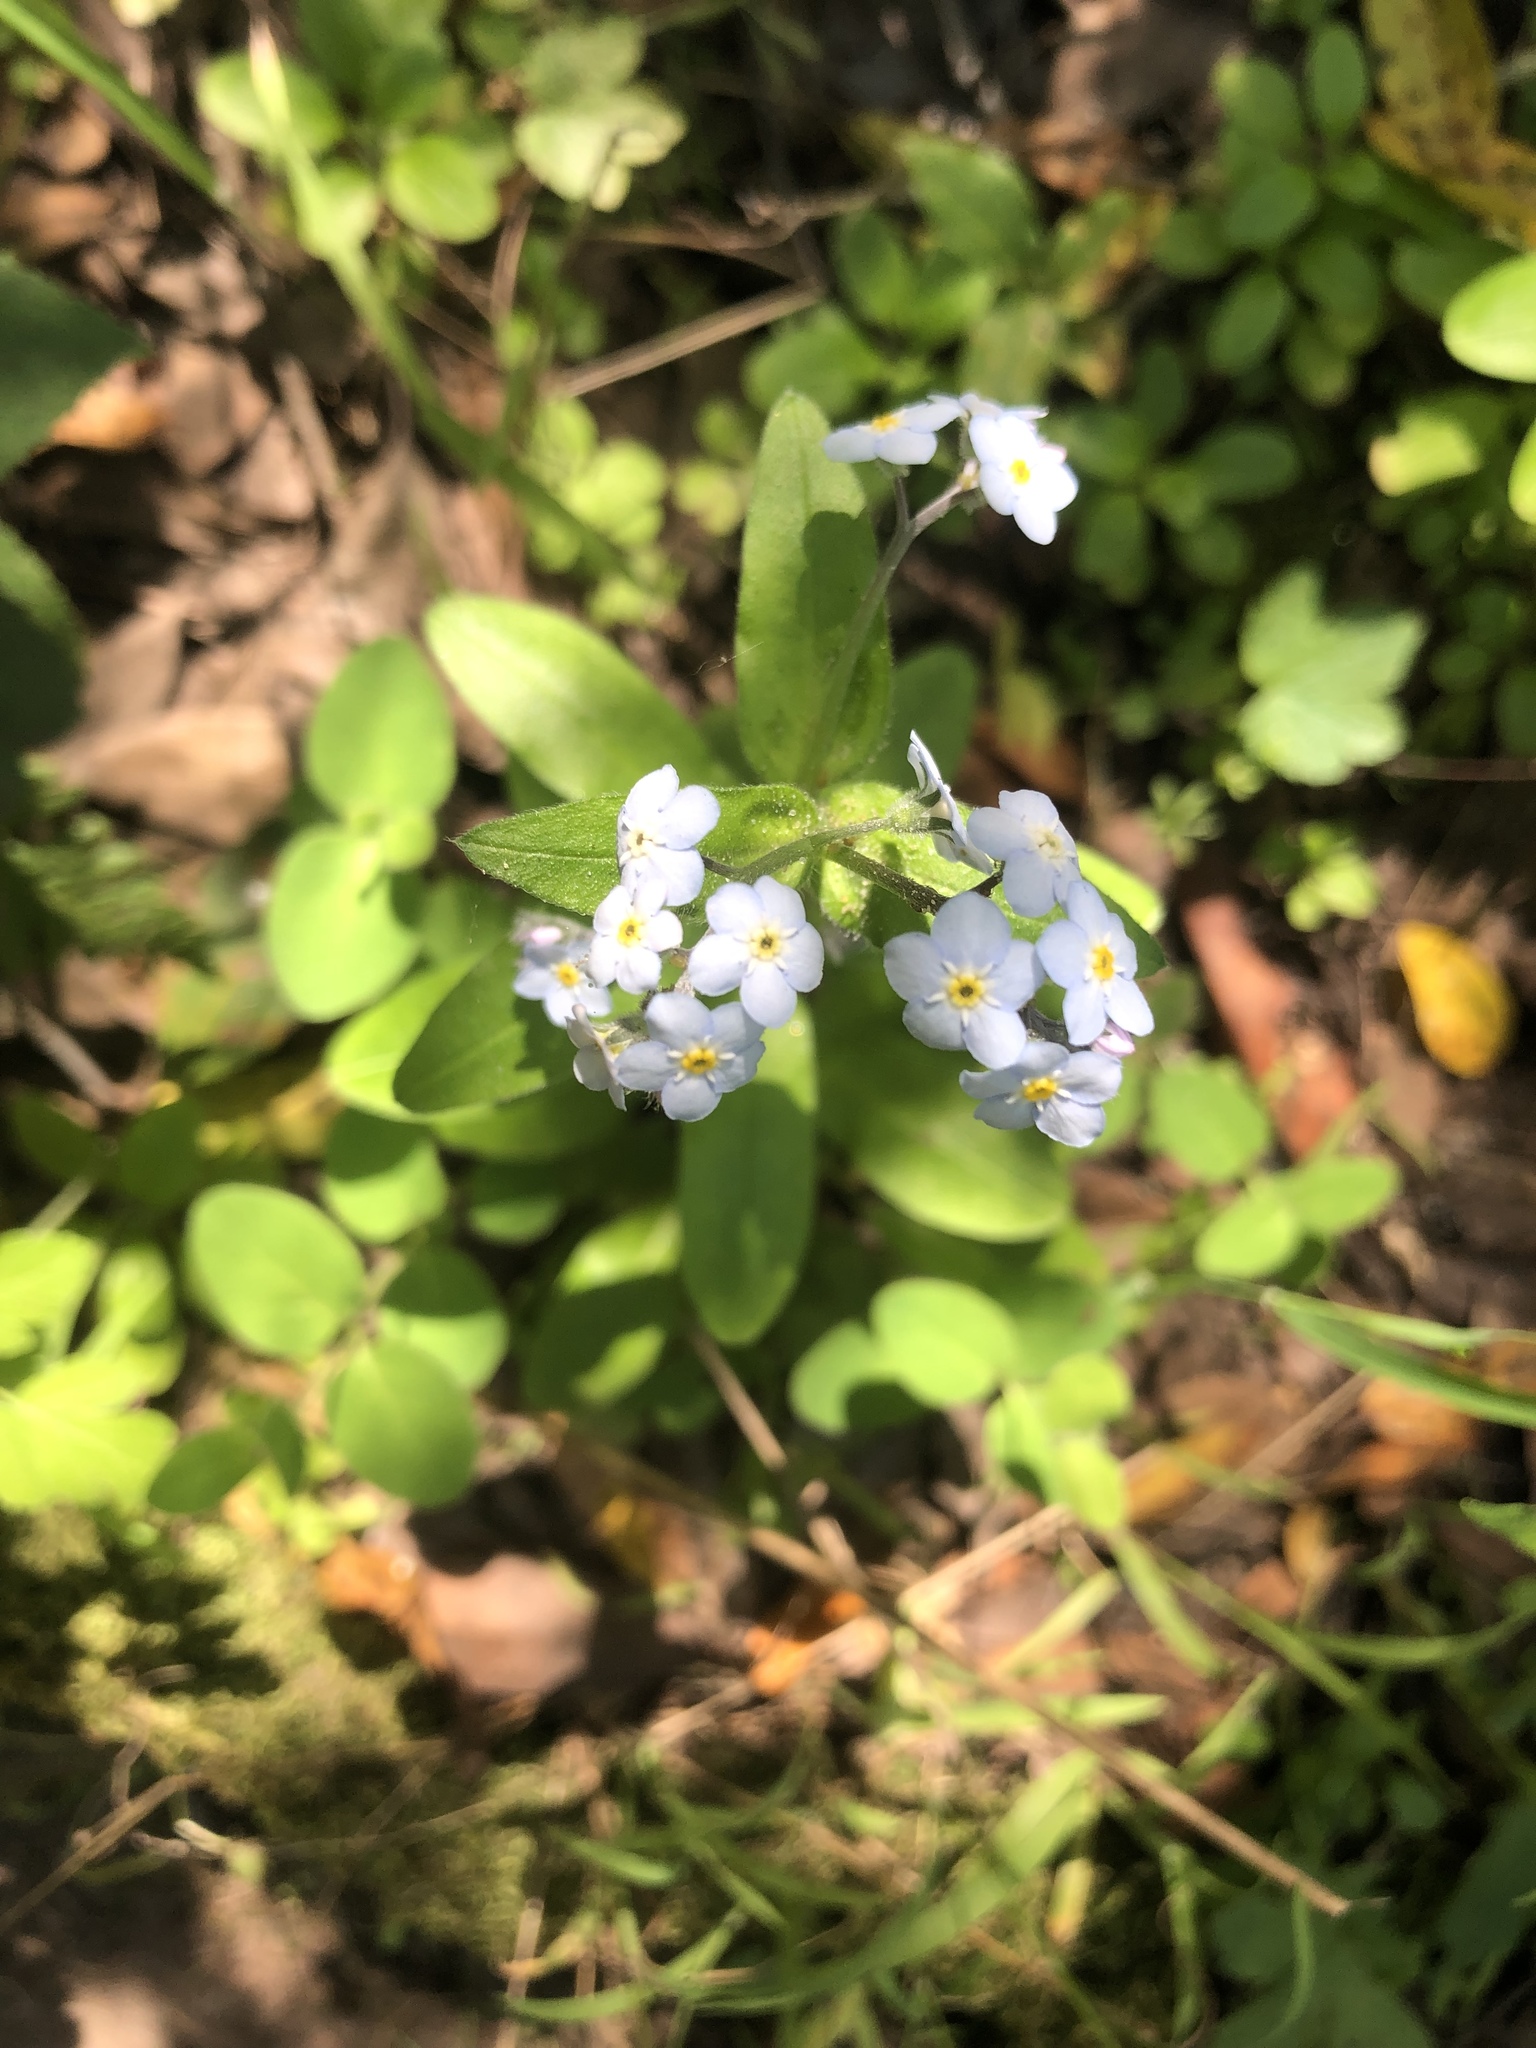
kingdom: Plantae
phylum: Tracheophyta
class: Magnoliopsida
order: Boraginales
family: Boraginaceae
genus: Myosotis
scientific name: Myosotis latifolia
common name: Broadleaf forget-me-not
